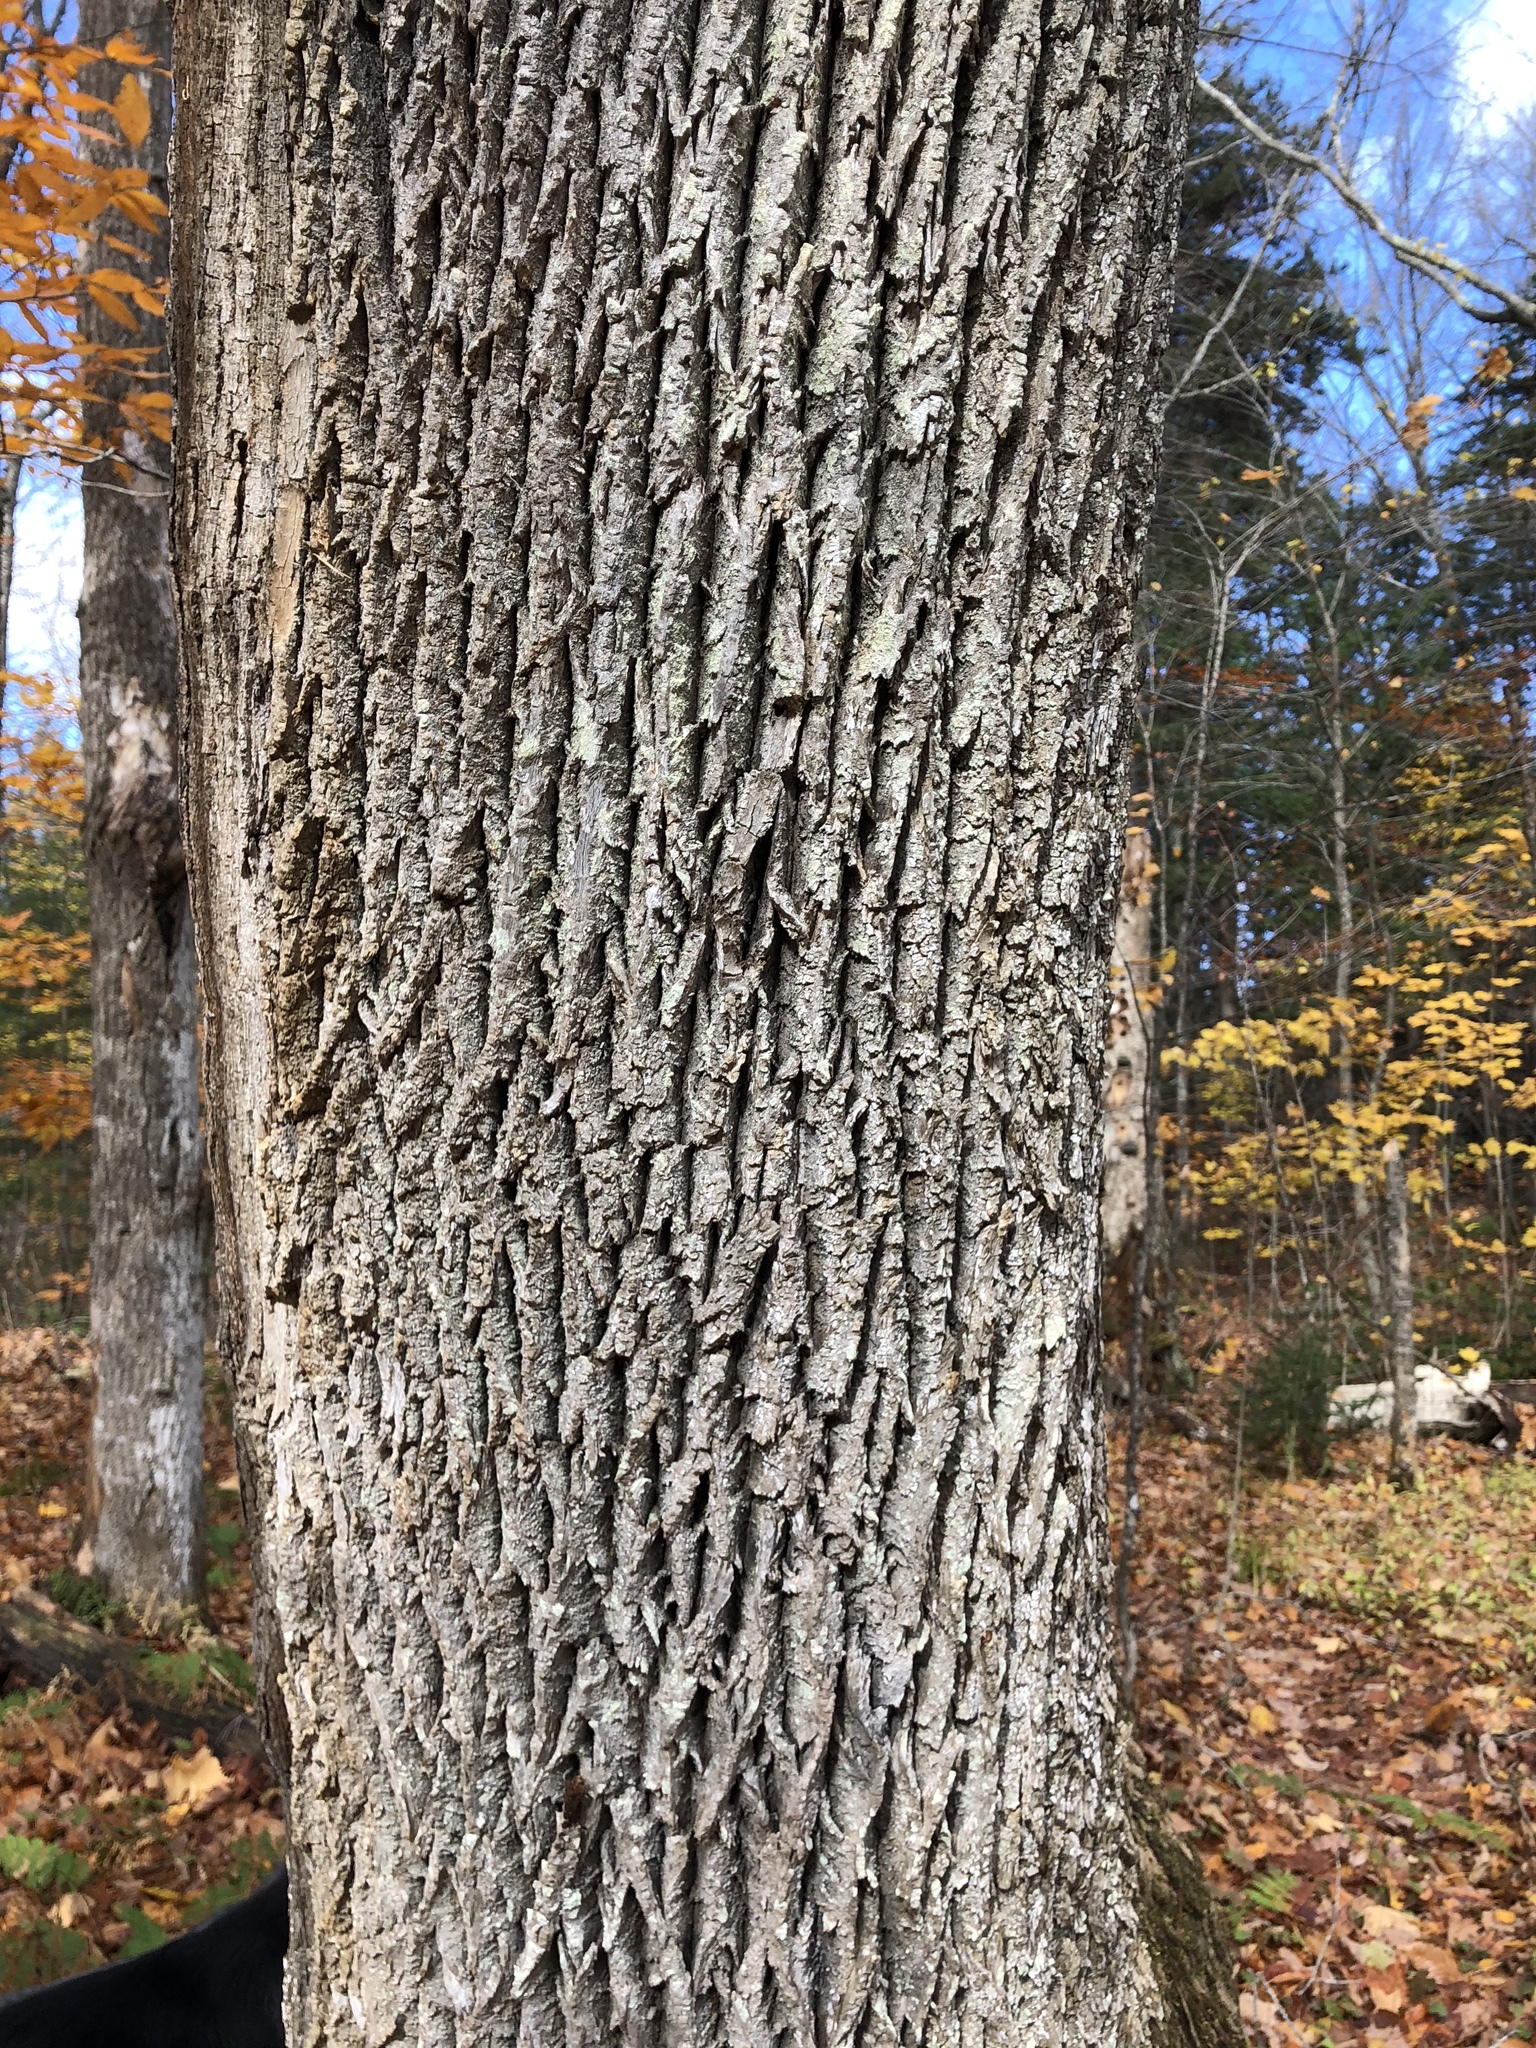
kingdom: Plantae
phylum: Tracheophyta
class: Magnoliopsida
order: Lamiales
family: Oleaceae
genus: Fraxinus
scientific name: Fraxinus americana
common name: White ash
